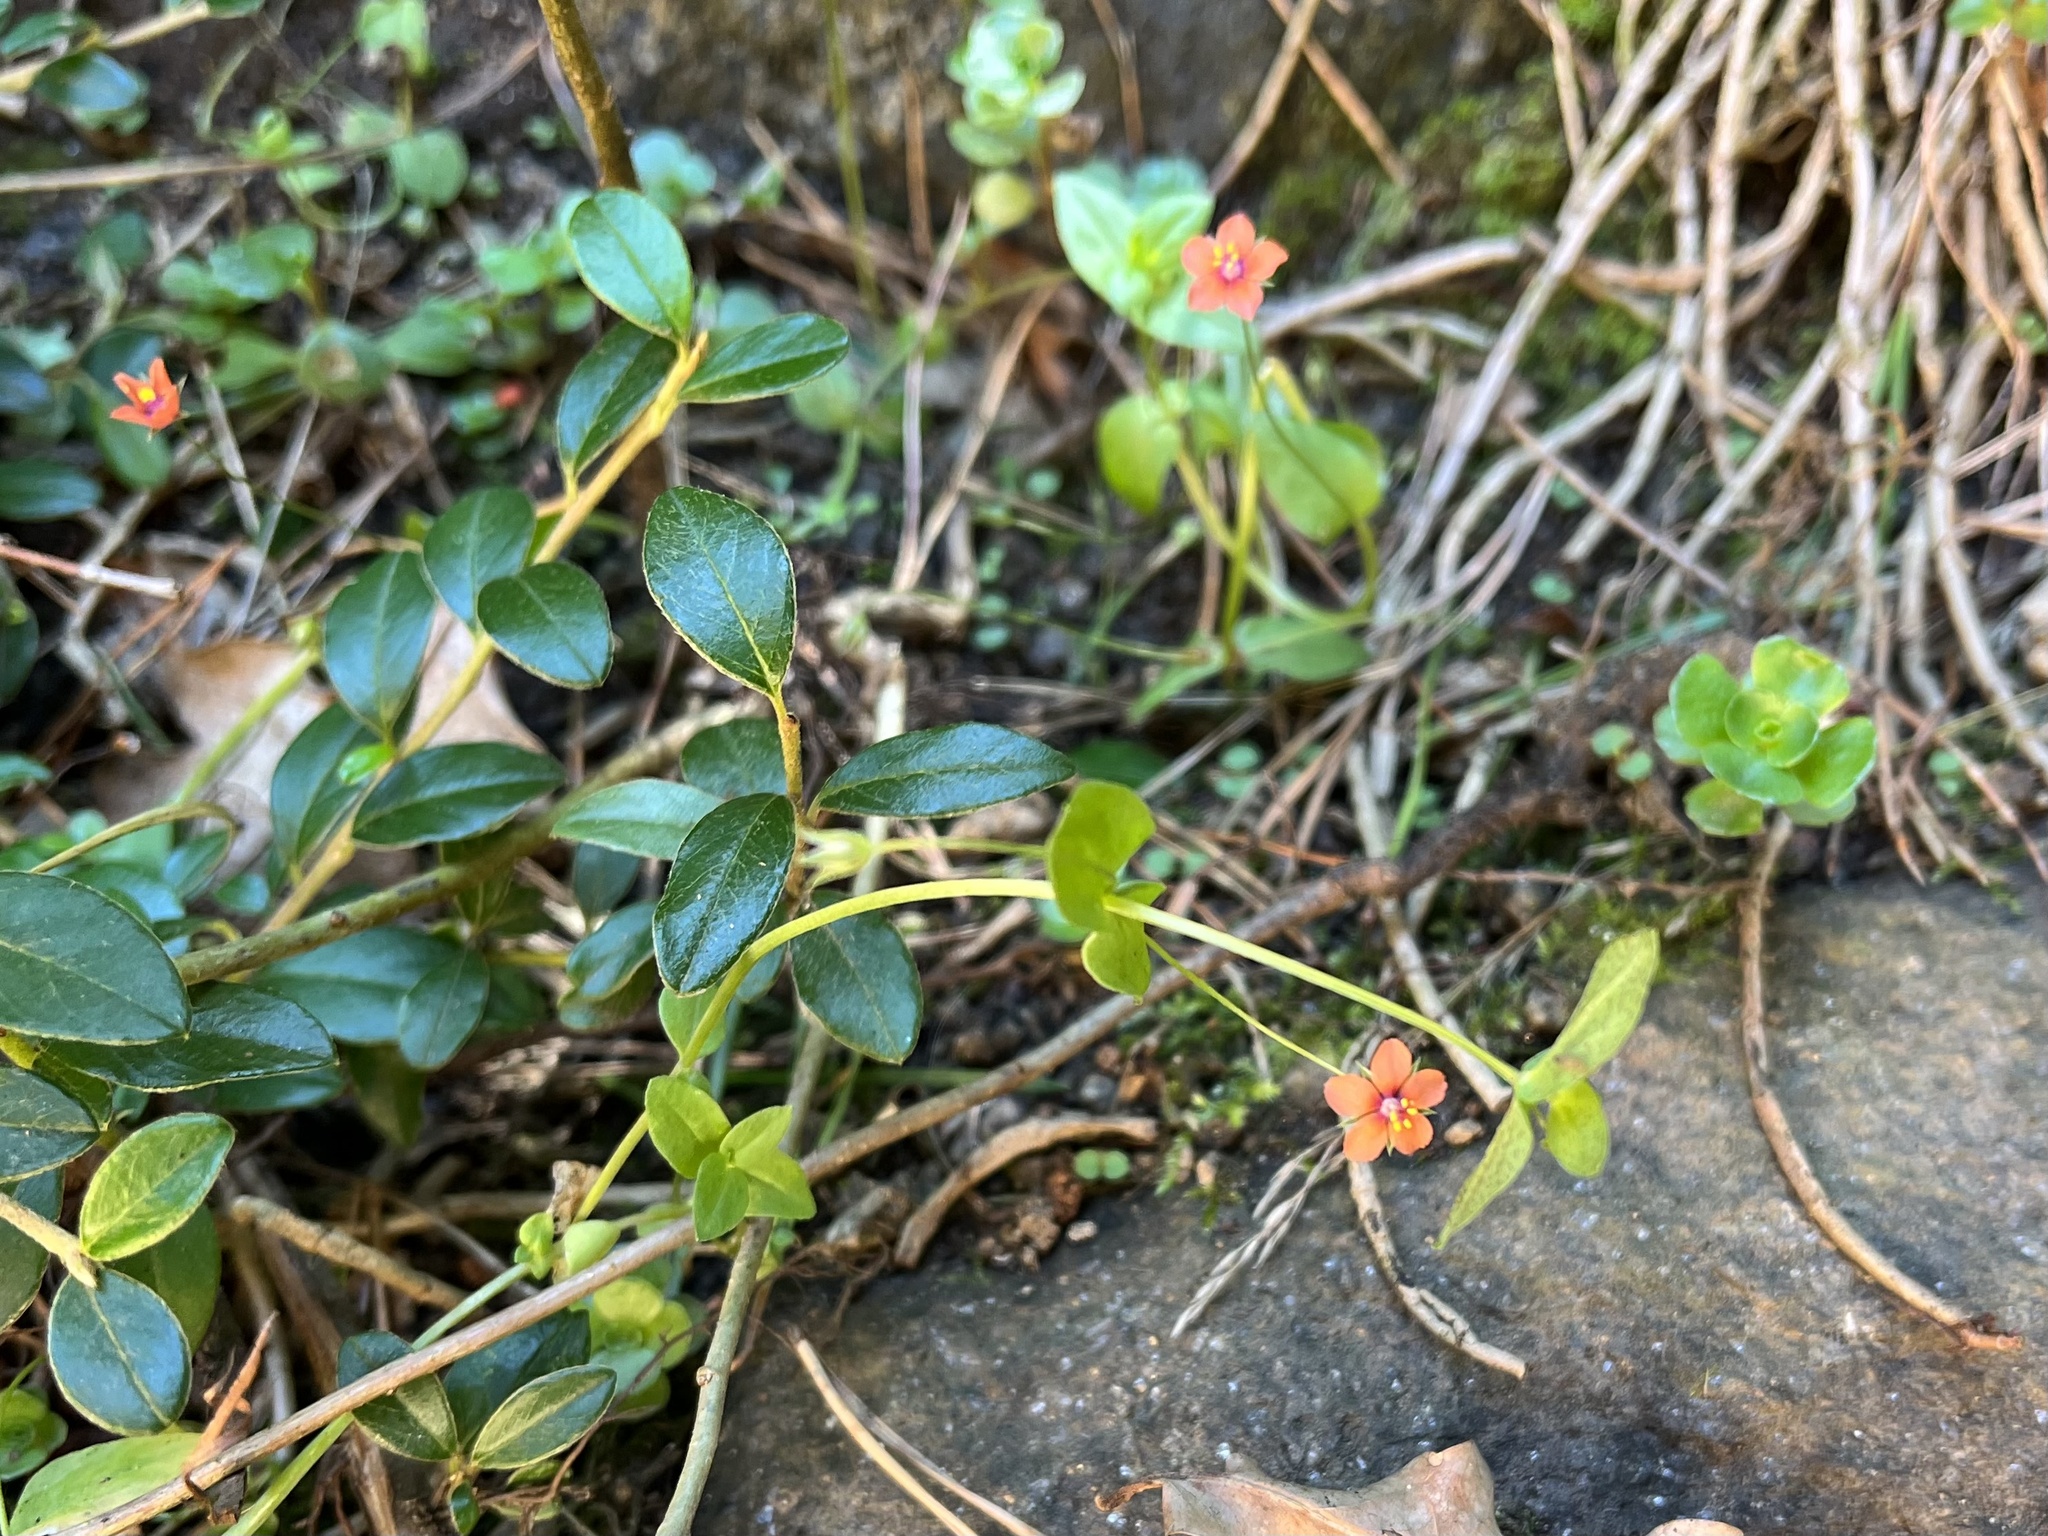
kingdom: Plantae
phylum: Tracheophyta
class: Magnoliopsida
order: Ericales
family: Primulaceae
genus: Lysimachia
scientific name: Lysimachia arvensis
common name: Scarlet pimpernel
